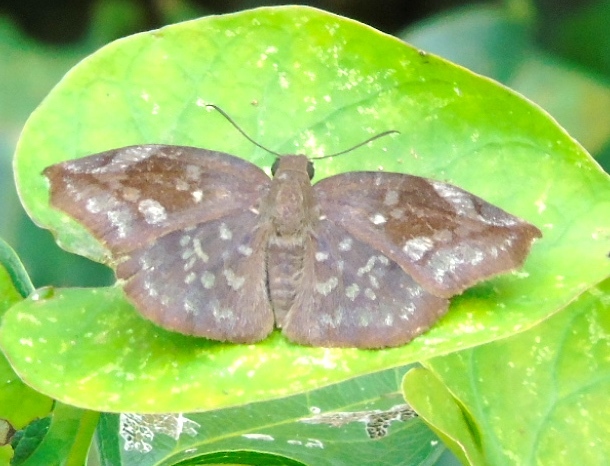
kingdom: Animalia
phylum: Arthropoda
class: Insecta
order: Lepidoptera
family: Hesperiidae
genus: Achlyodes
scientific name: Achlyodes thraso
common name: Sickle-winged skipper
